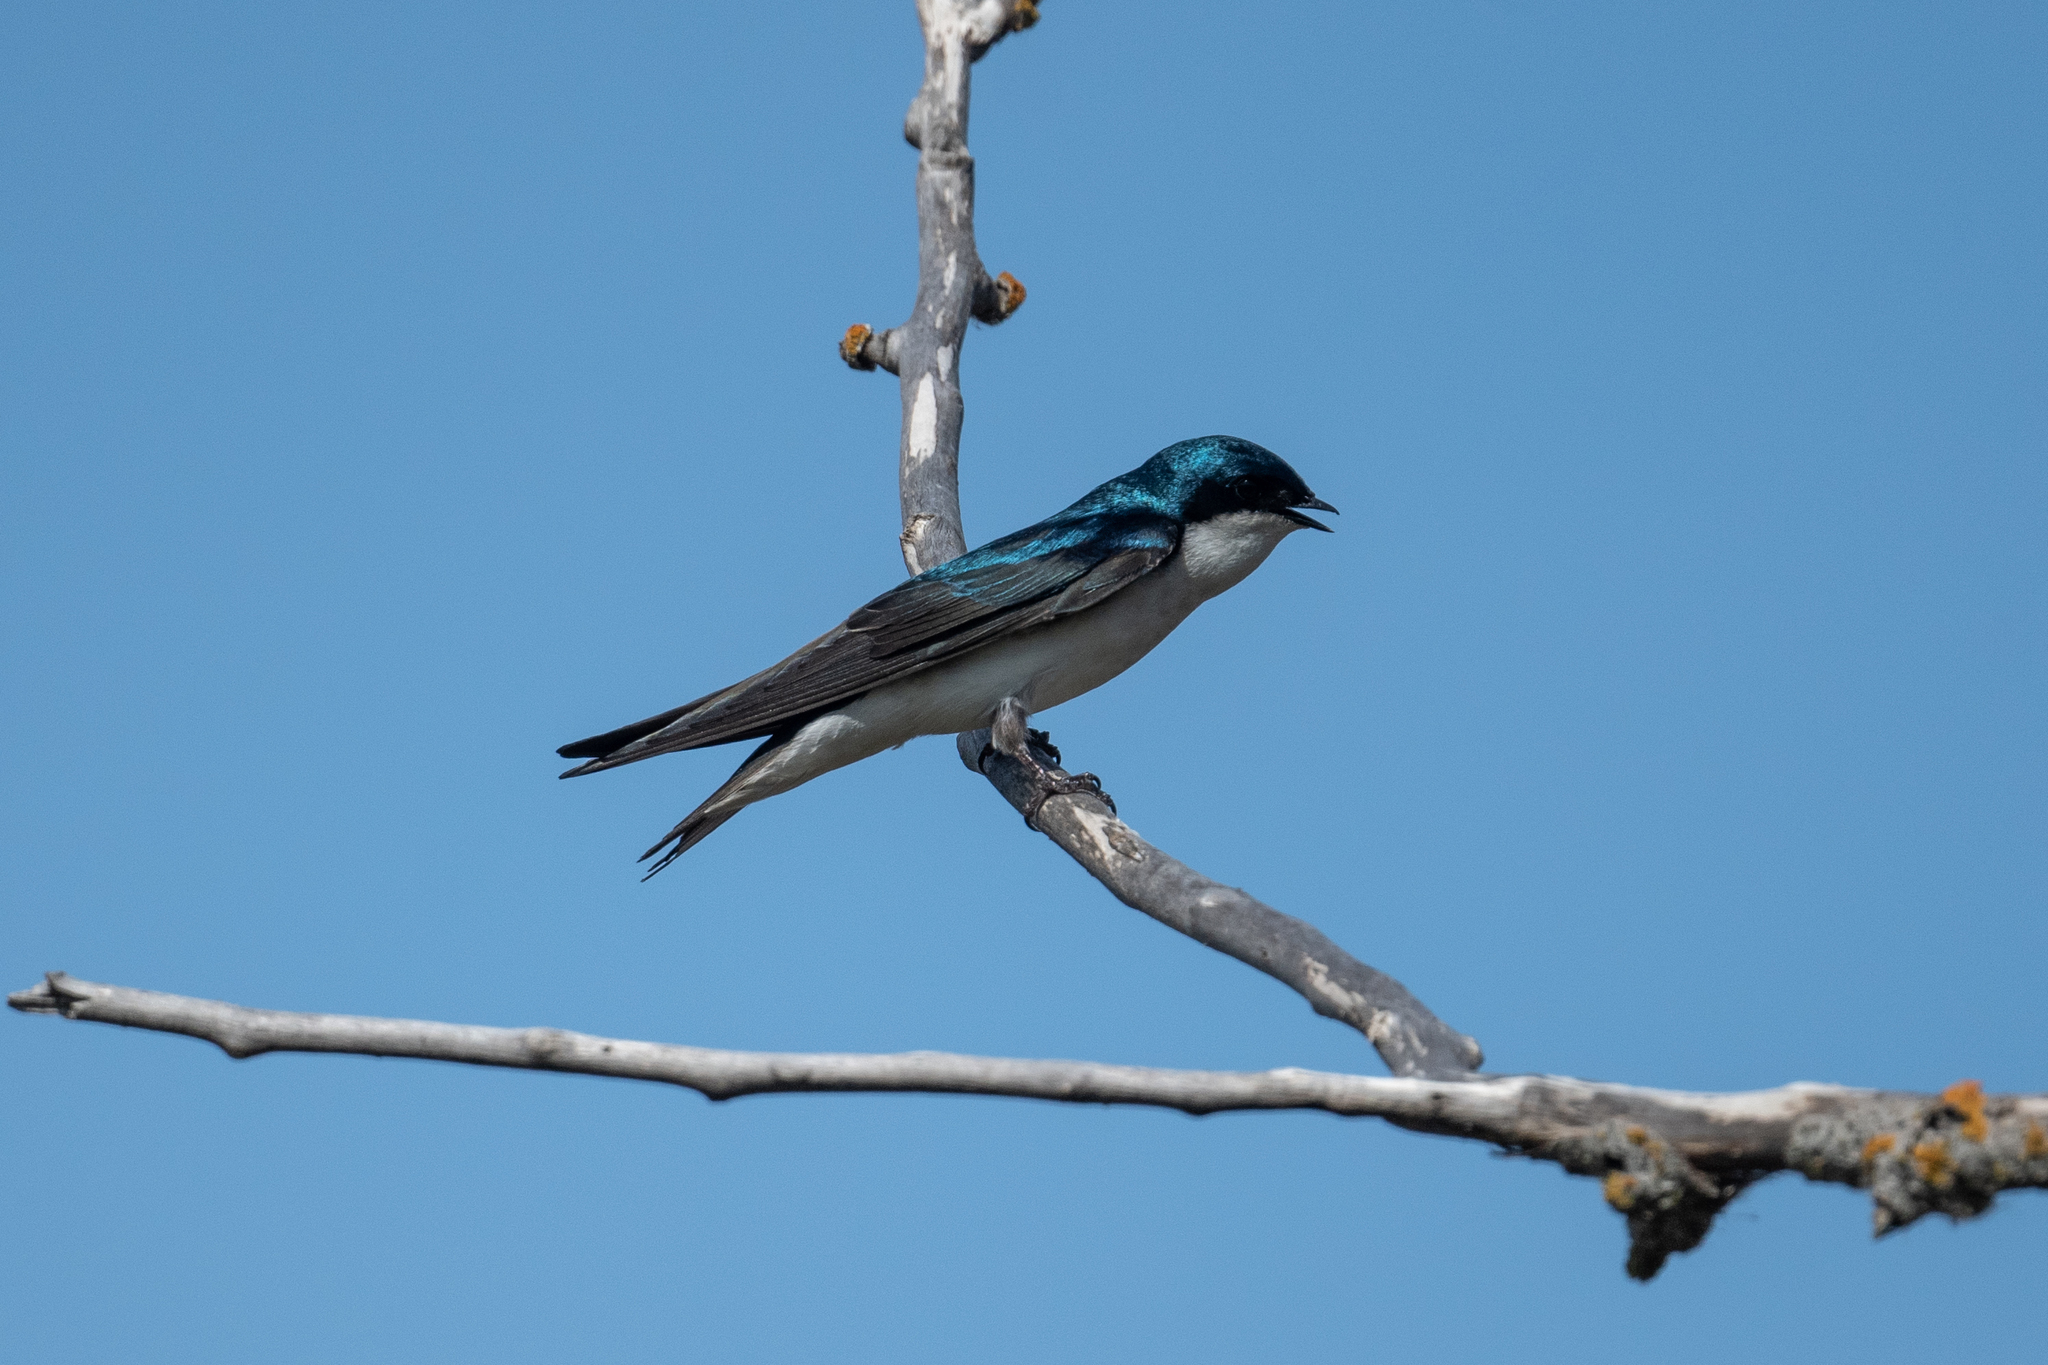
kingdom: Animalia
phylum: Chordata
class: Aves
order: Passeriformes
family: Hirundinidae
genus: Tachycineta
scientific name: Tachycineta bicolor
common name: Tree swallow
